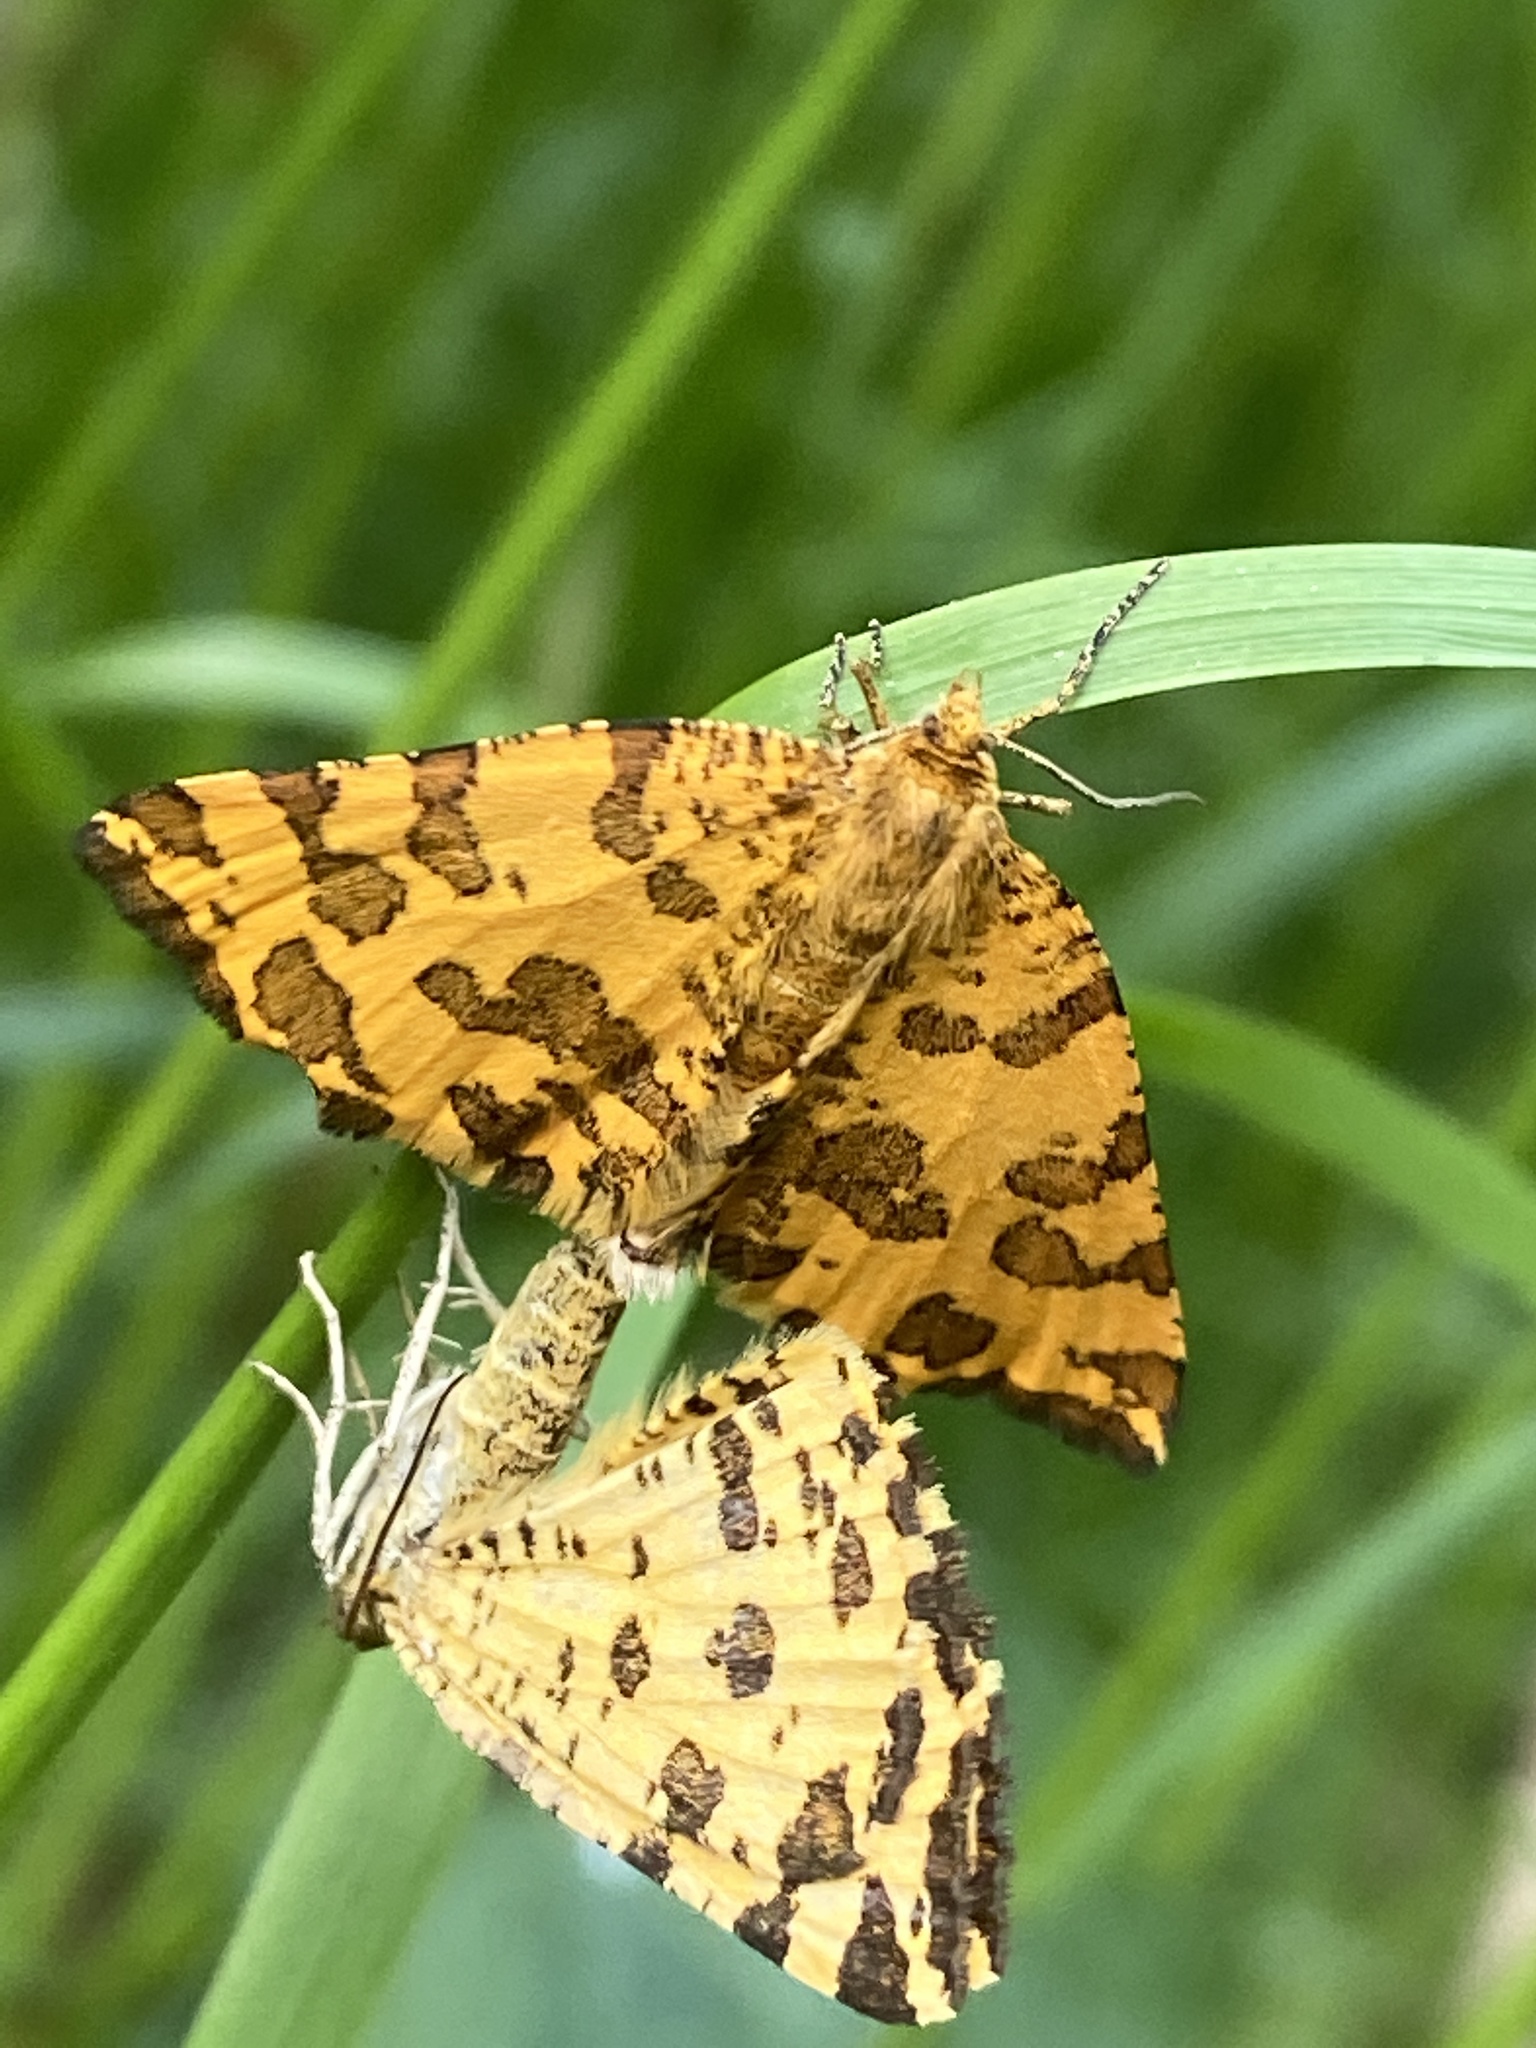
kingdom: Animalia
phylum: Arthropoda
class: Insecta
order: Lepidoptera
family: Geometridae
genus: Pseudopanthera
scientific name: Pseudopanthera macularia
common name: Speckled yellow
